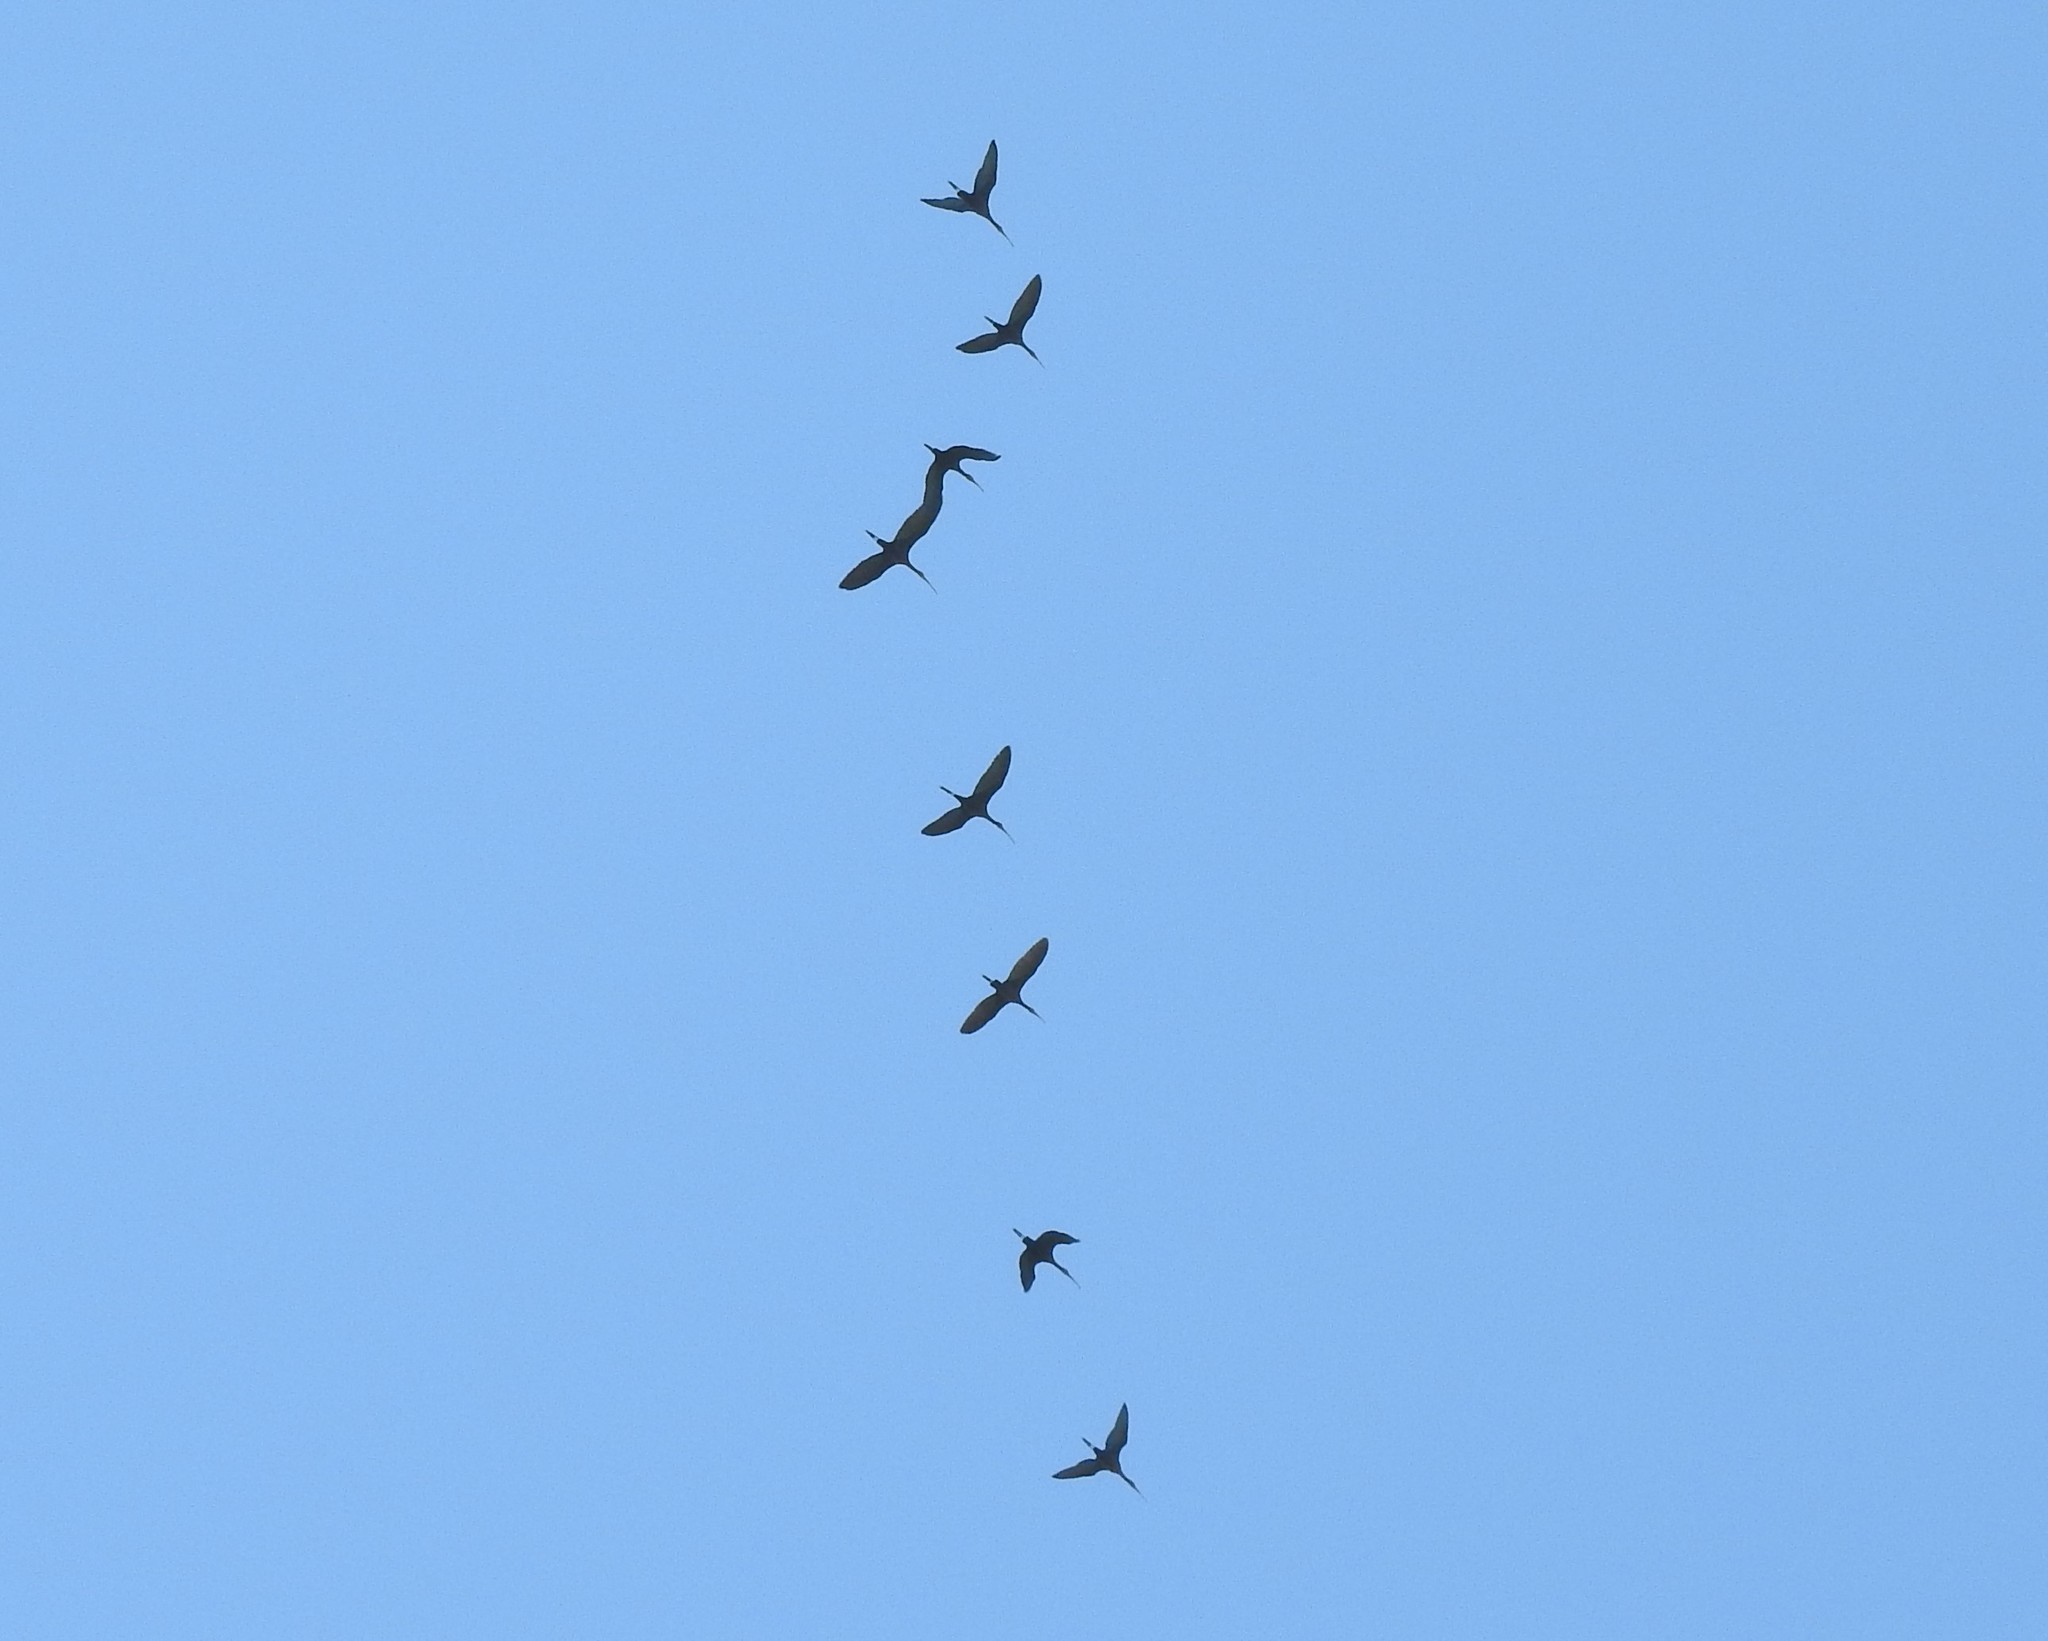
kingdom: Animalia
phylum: Chordata
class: Aves
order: Pelecaniformes
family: Threskiornithidae
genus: Plegadis
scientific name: Plegadis chihi
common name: White-faced ibis
